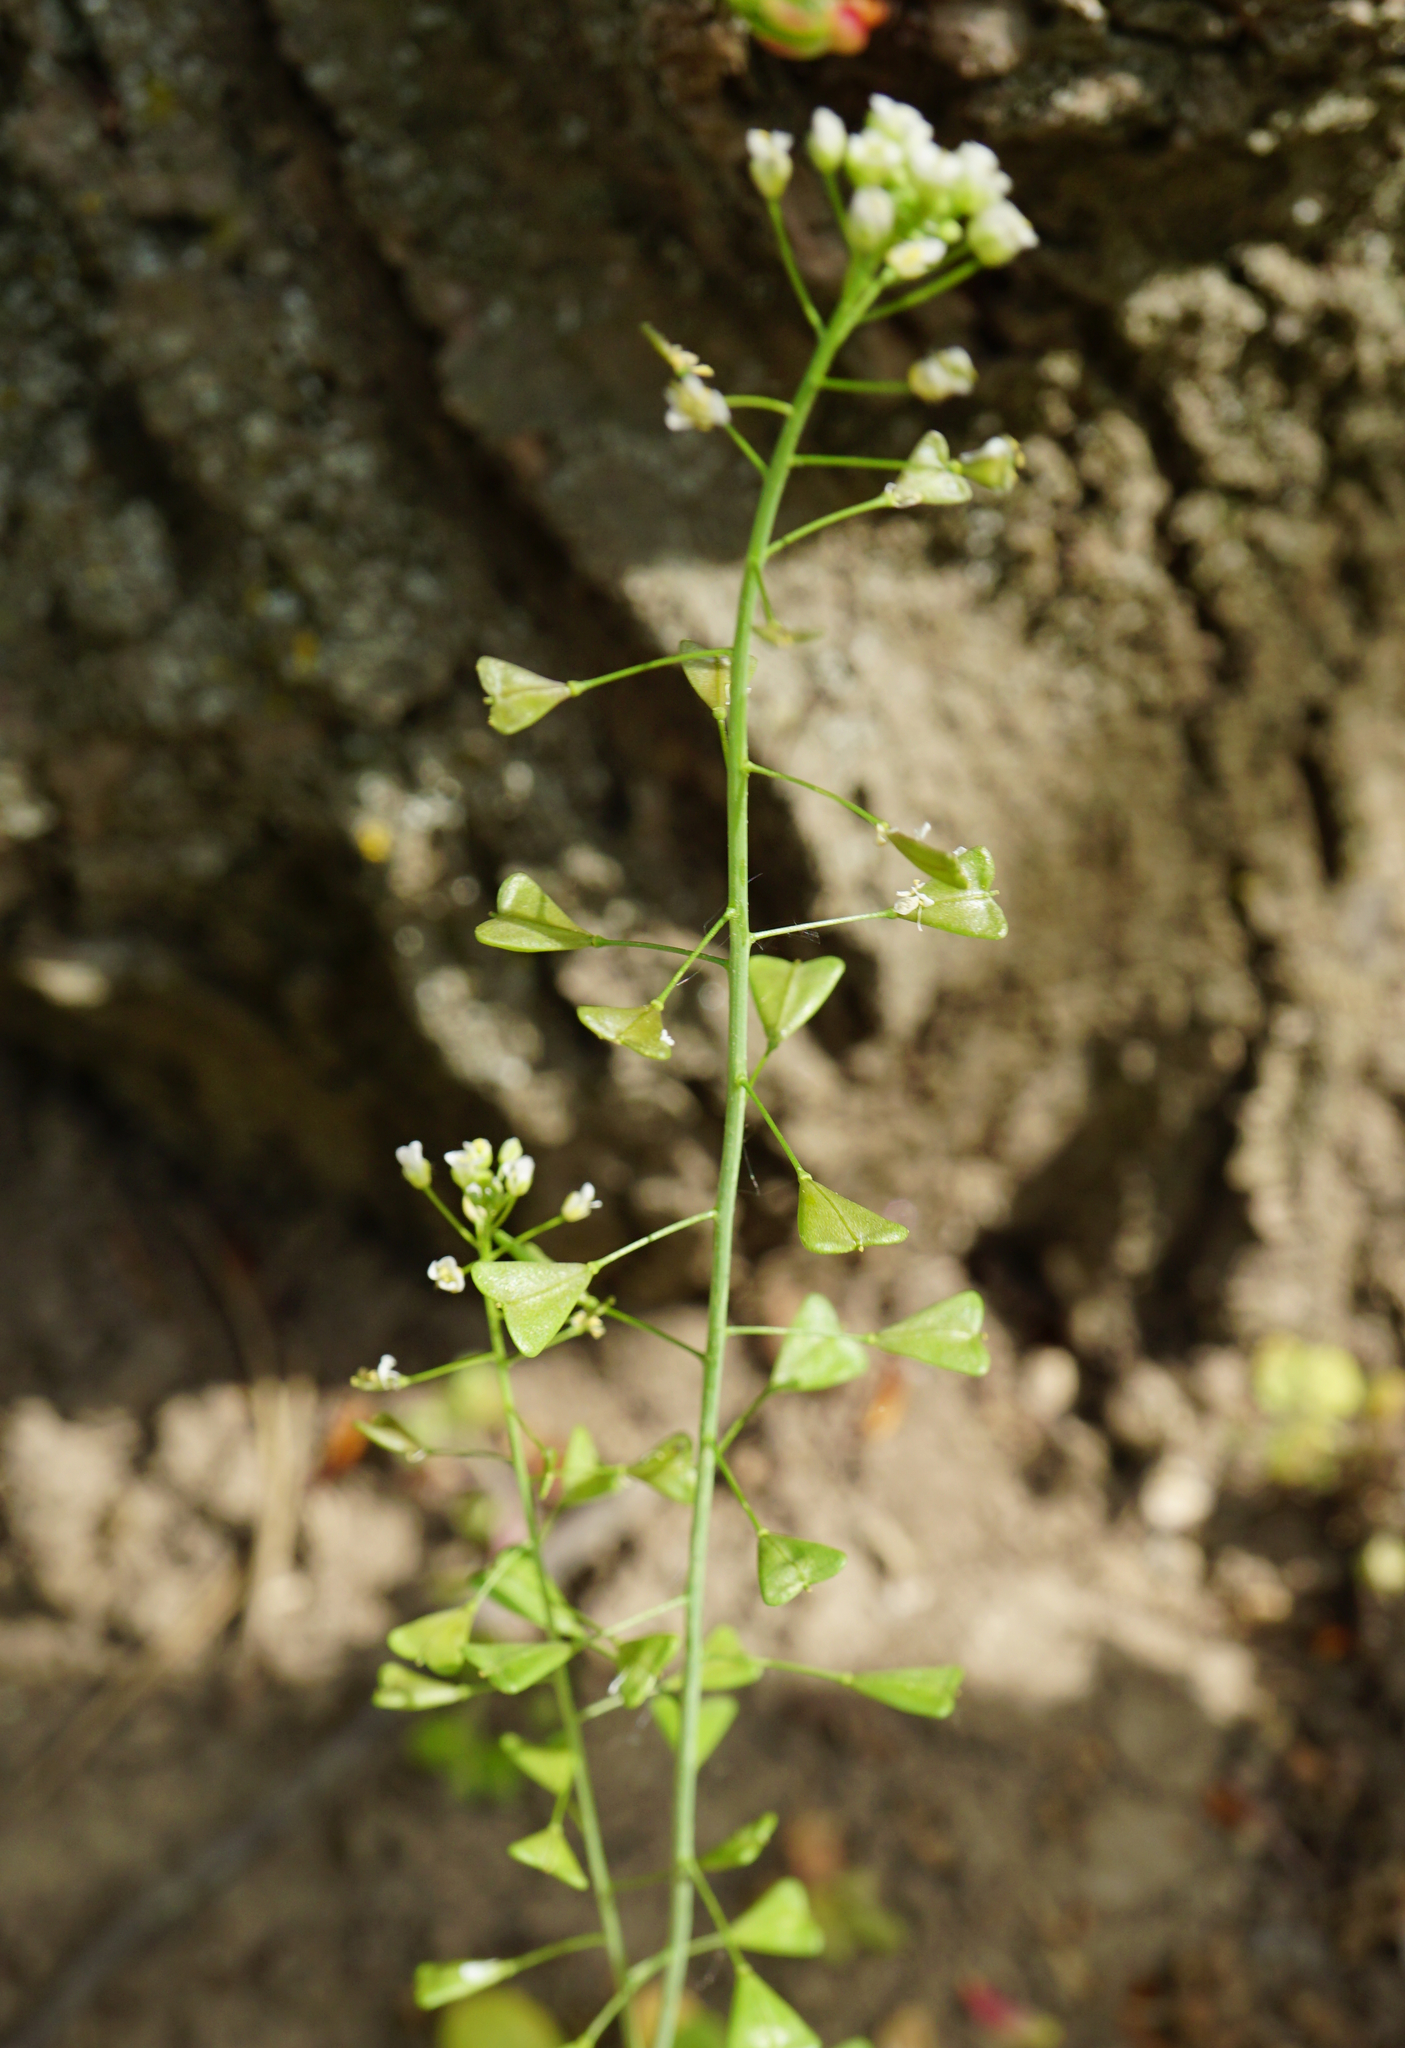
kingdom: Plantae
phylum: Tracheophyta
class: Magnoliopsida
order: Brassicales
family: Brassicaceae
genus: Capsella
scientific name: Capsella bursa-pastoris
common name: Shepherd's purse
